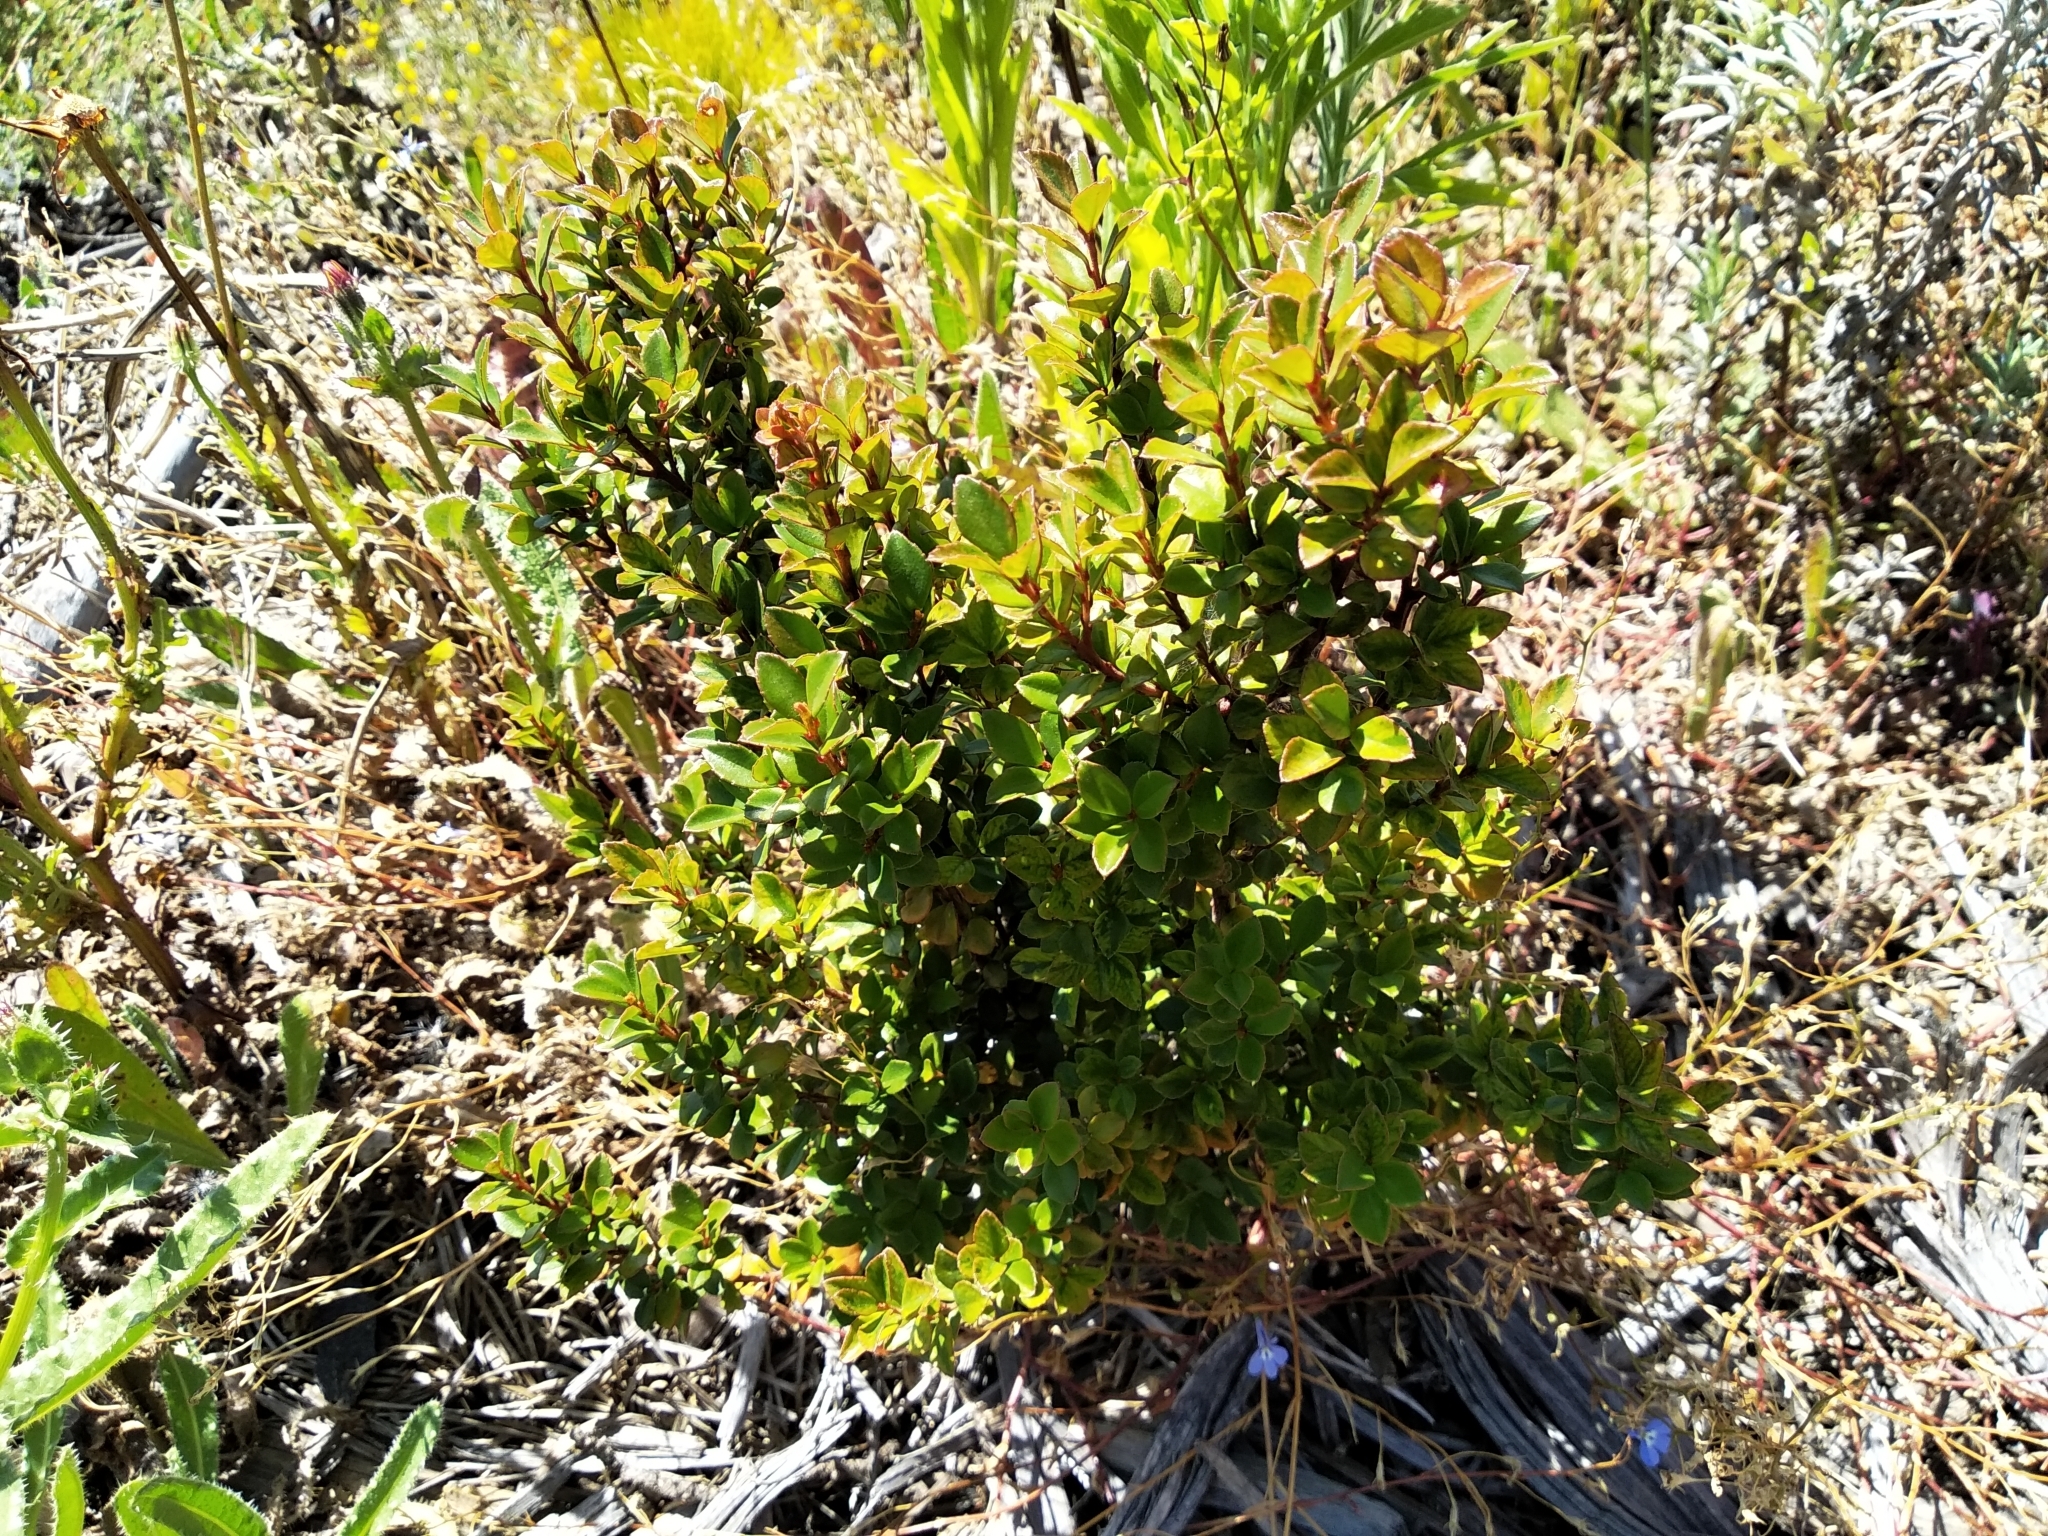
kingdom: Plantae
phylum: Tracheophyta
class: Magnoliopsida
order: Ericales
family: Primulaceae
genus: Myrsine
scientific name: Myrsine africana
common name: African-boxwood
